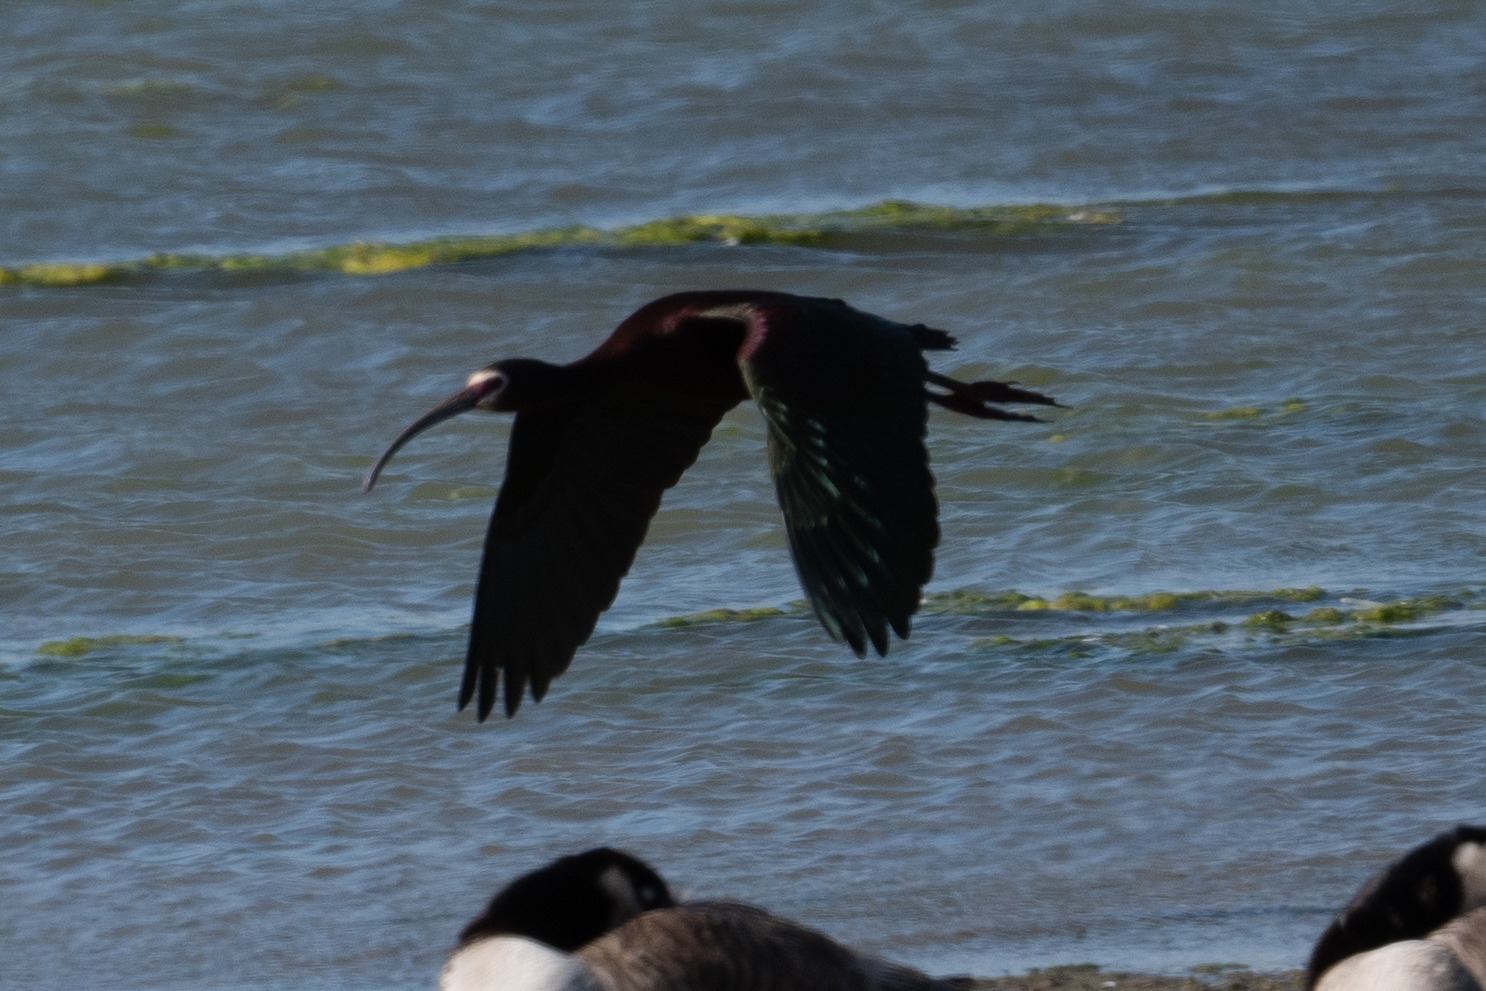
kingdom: Animalia
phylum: Chordata
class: Aves
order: Pelecaniformes
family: Threskiornithidae
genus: Plegadis
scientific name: Plegadis chihi
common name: White-faced ibis
